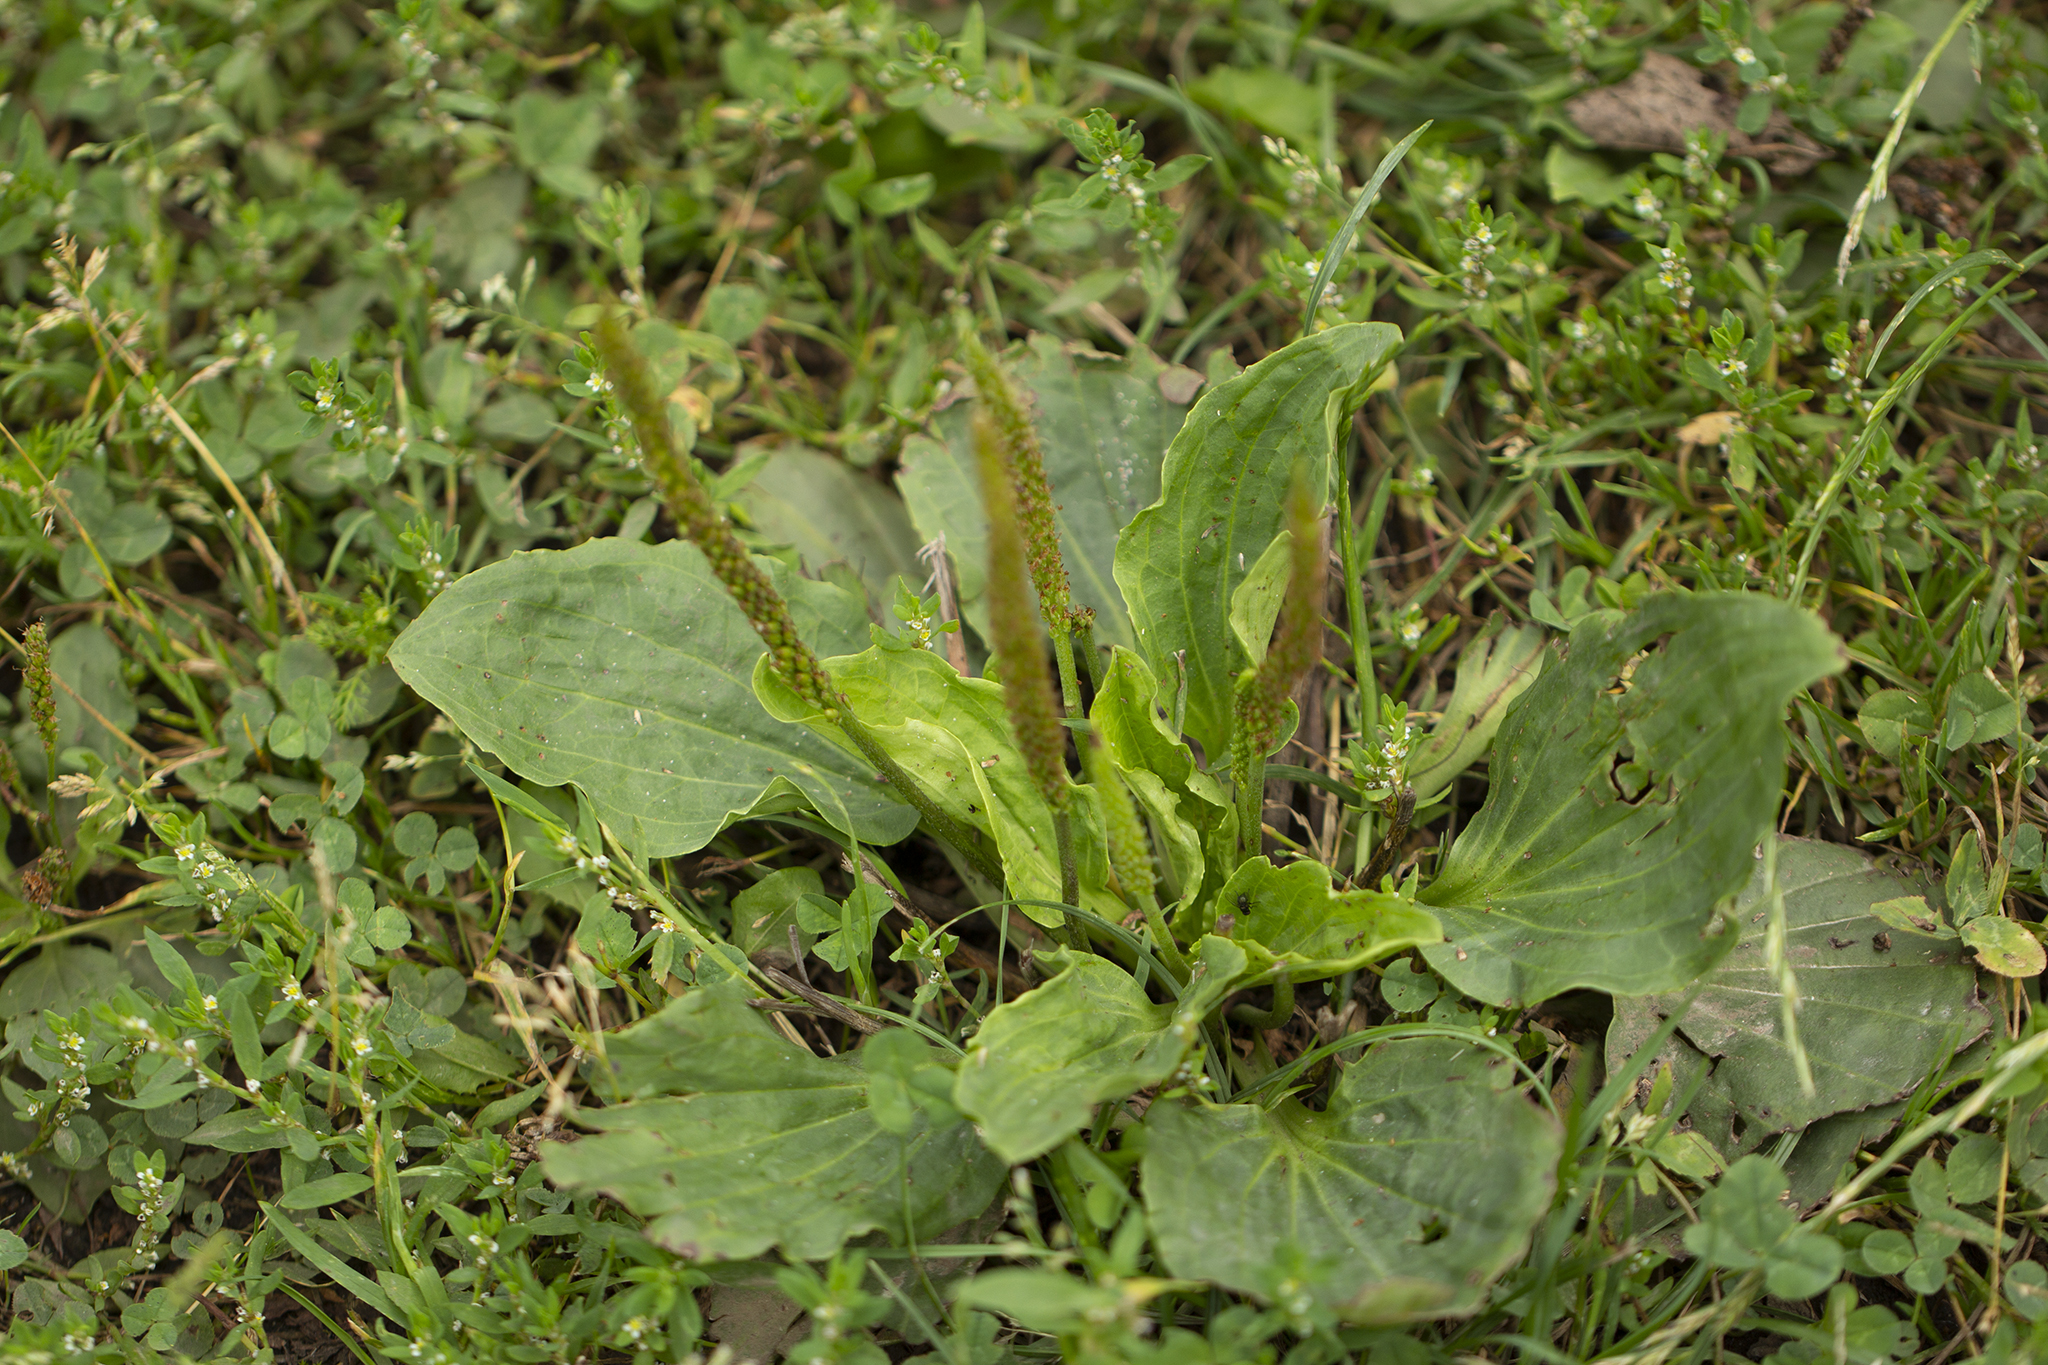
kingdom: Plantae
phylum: Tracheophyta
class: Magnoliopsida
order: Lamiales
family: Plantaginaceae
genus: Plantago
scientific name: Plantago major
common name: Common plantain
